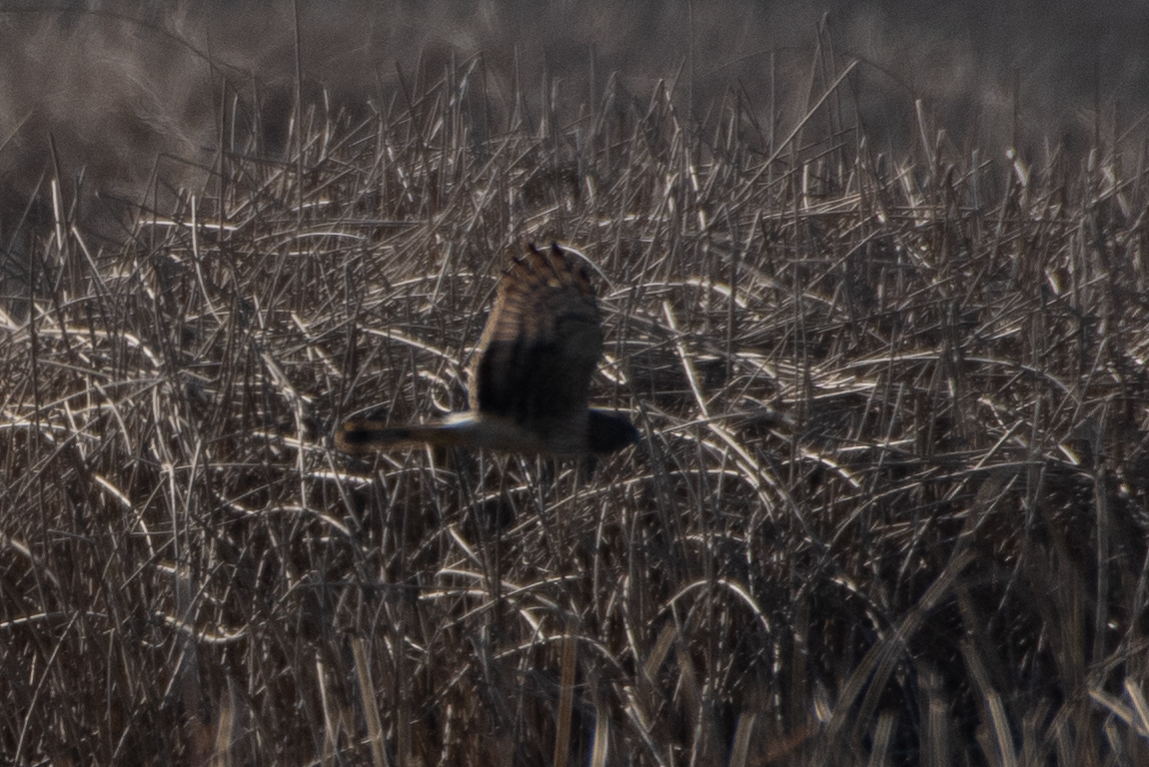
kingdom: Animalia
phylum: Chordata
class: Aves
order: Accipitriformes
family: Accipitridae
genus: Circus
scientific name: Circus cyaneus
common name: Hen harrier
